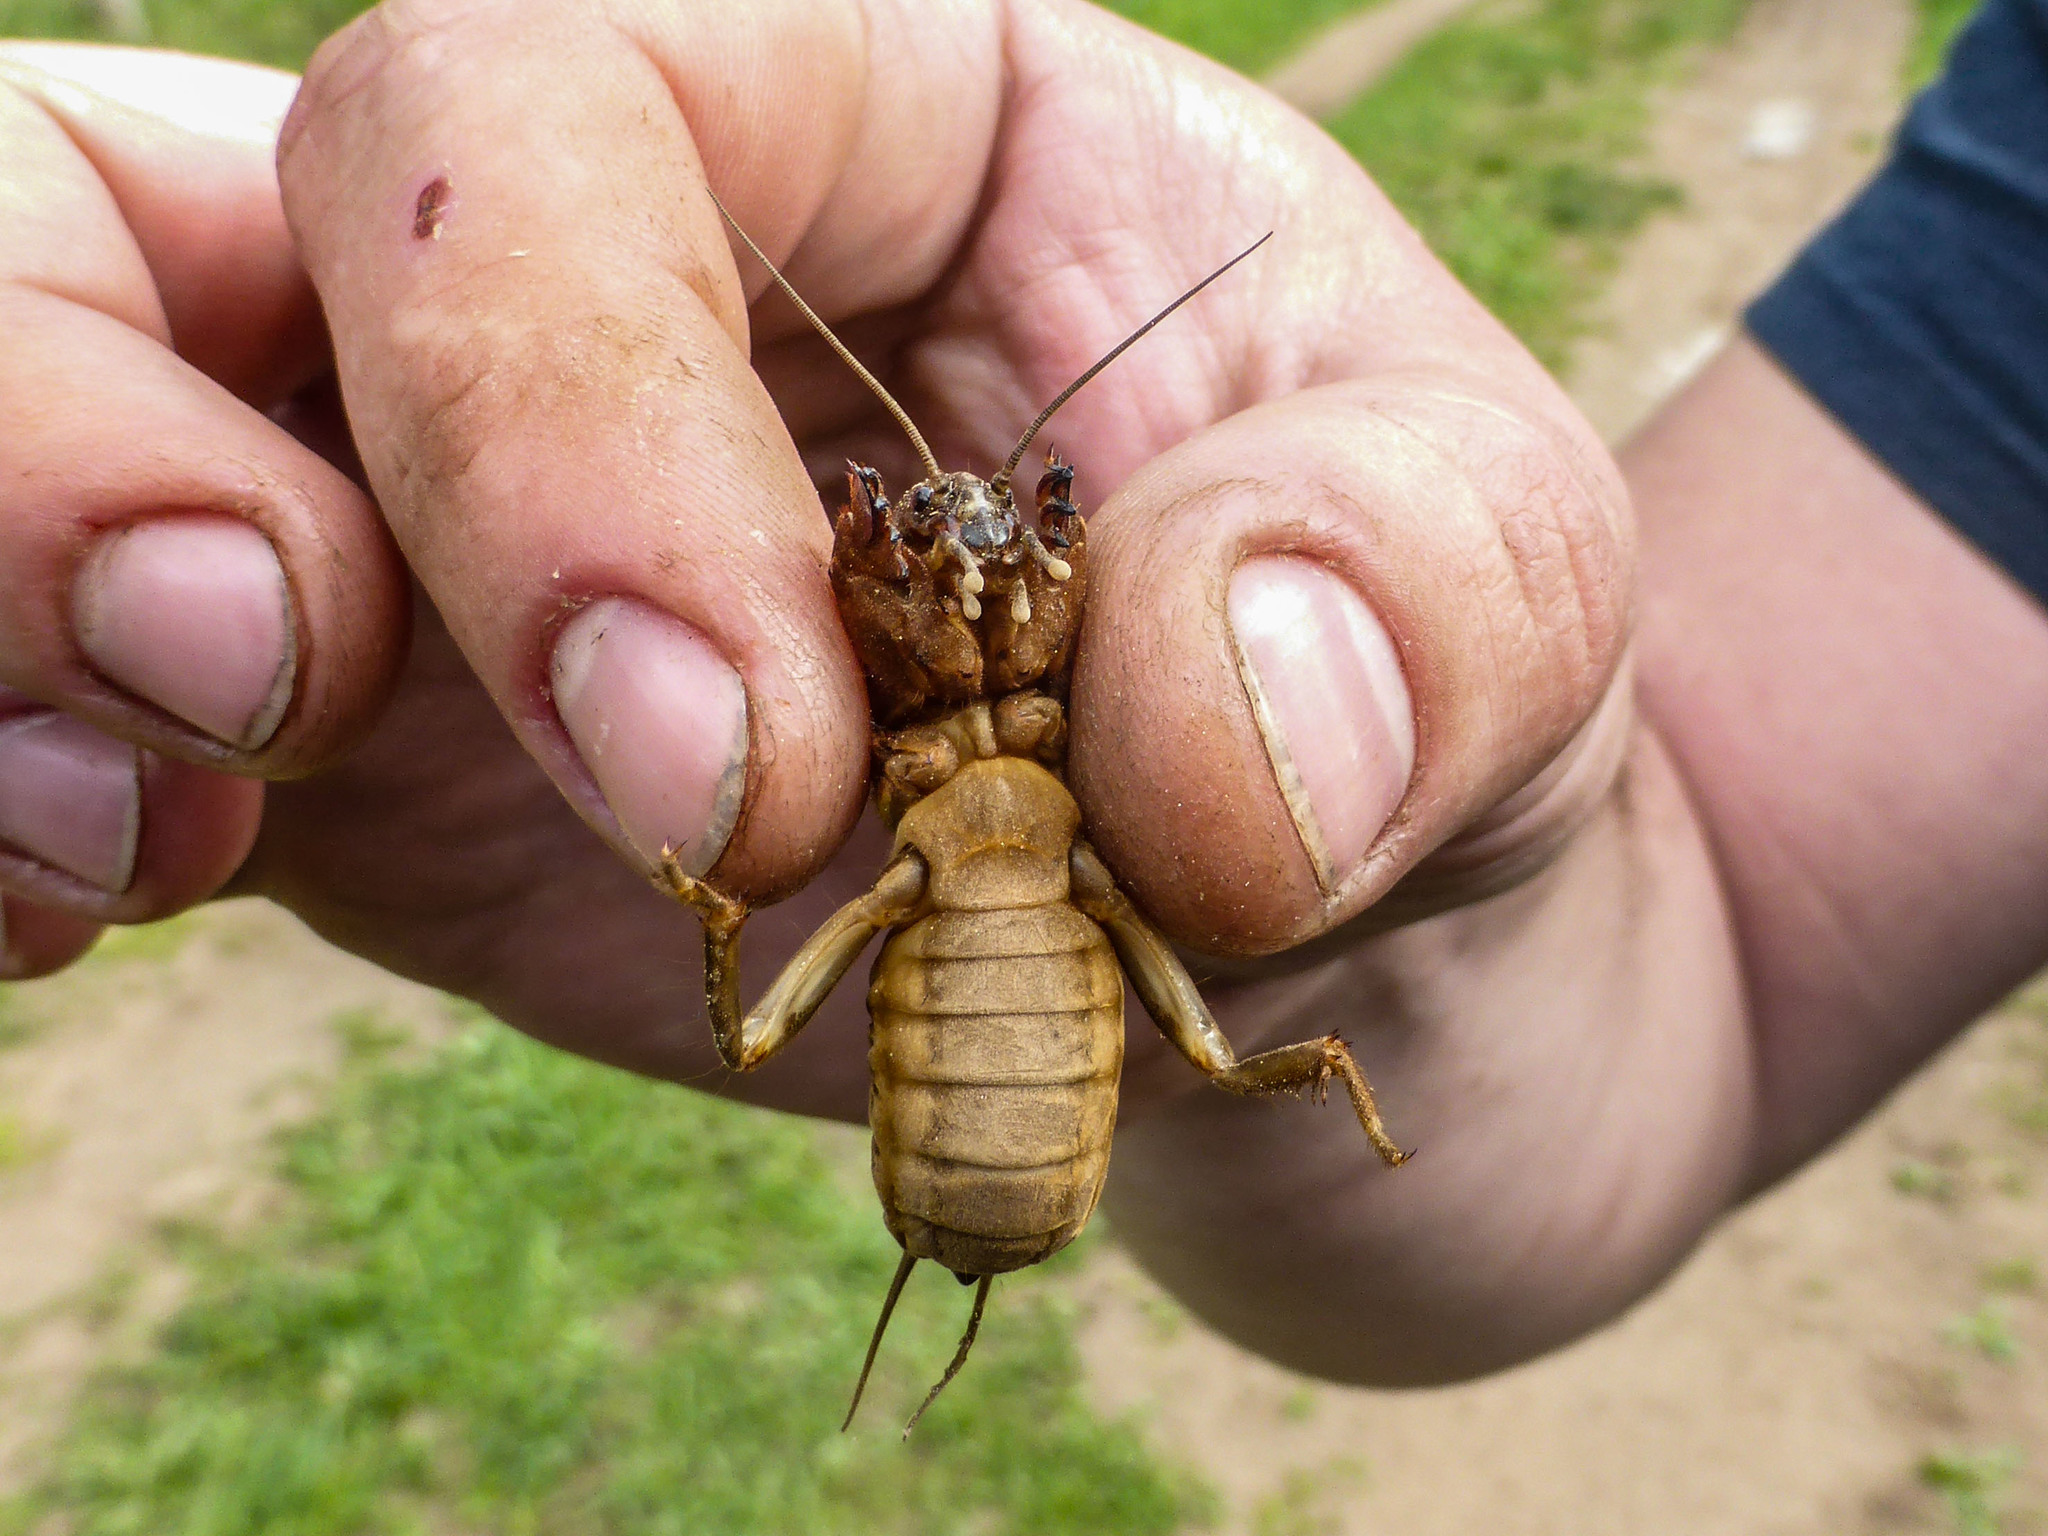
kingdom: Animalia
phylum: Arthropoda
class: Insecta
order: Orthoptera
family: Gryllotalpidae
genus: Gryllotalpa
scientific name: Gryllotalpa gryllotalpa
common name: European mole cricket
